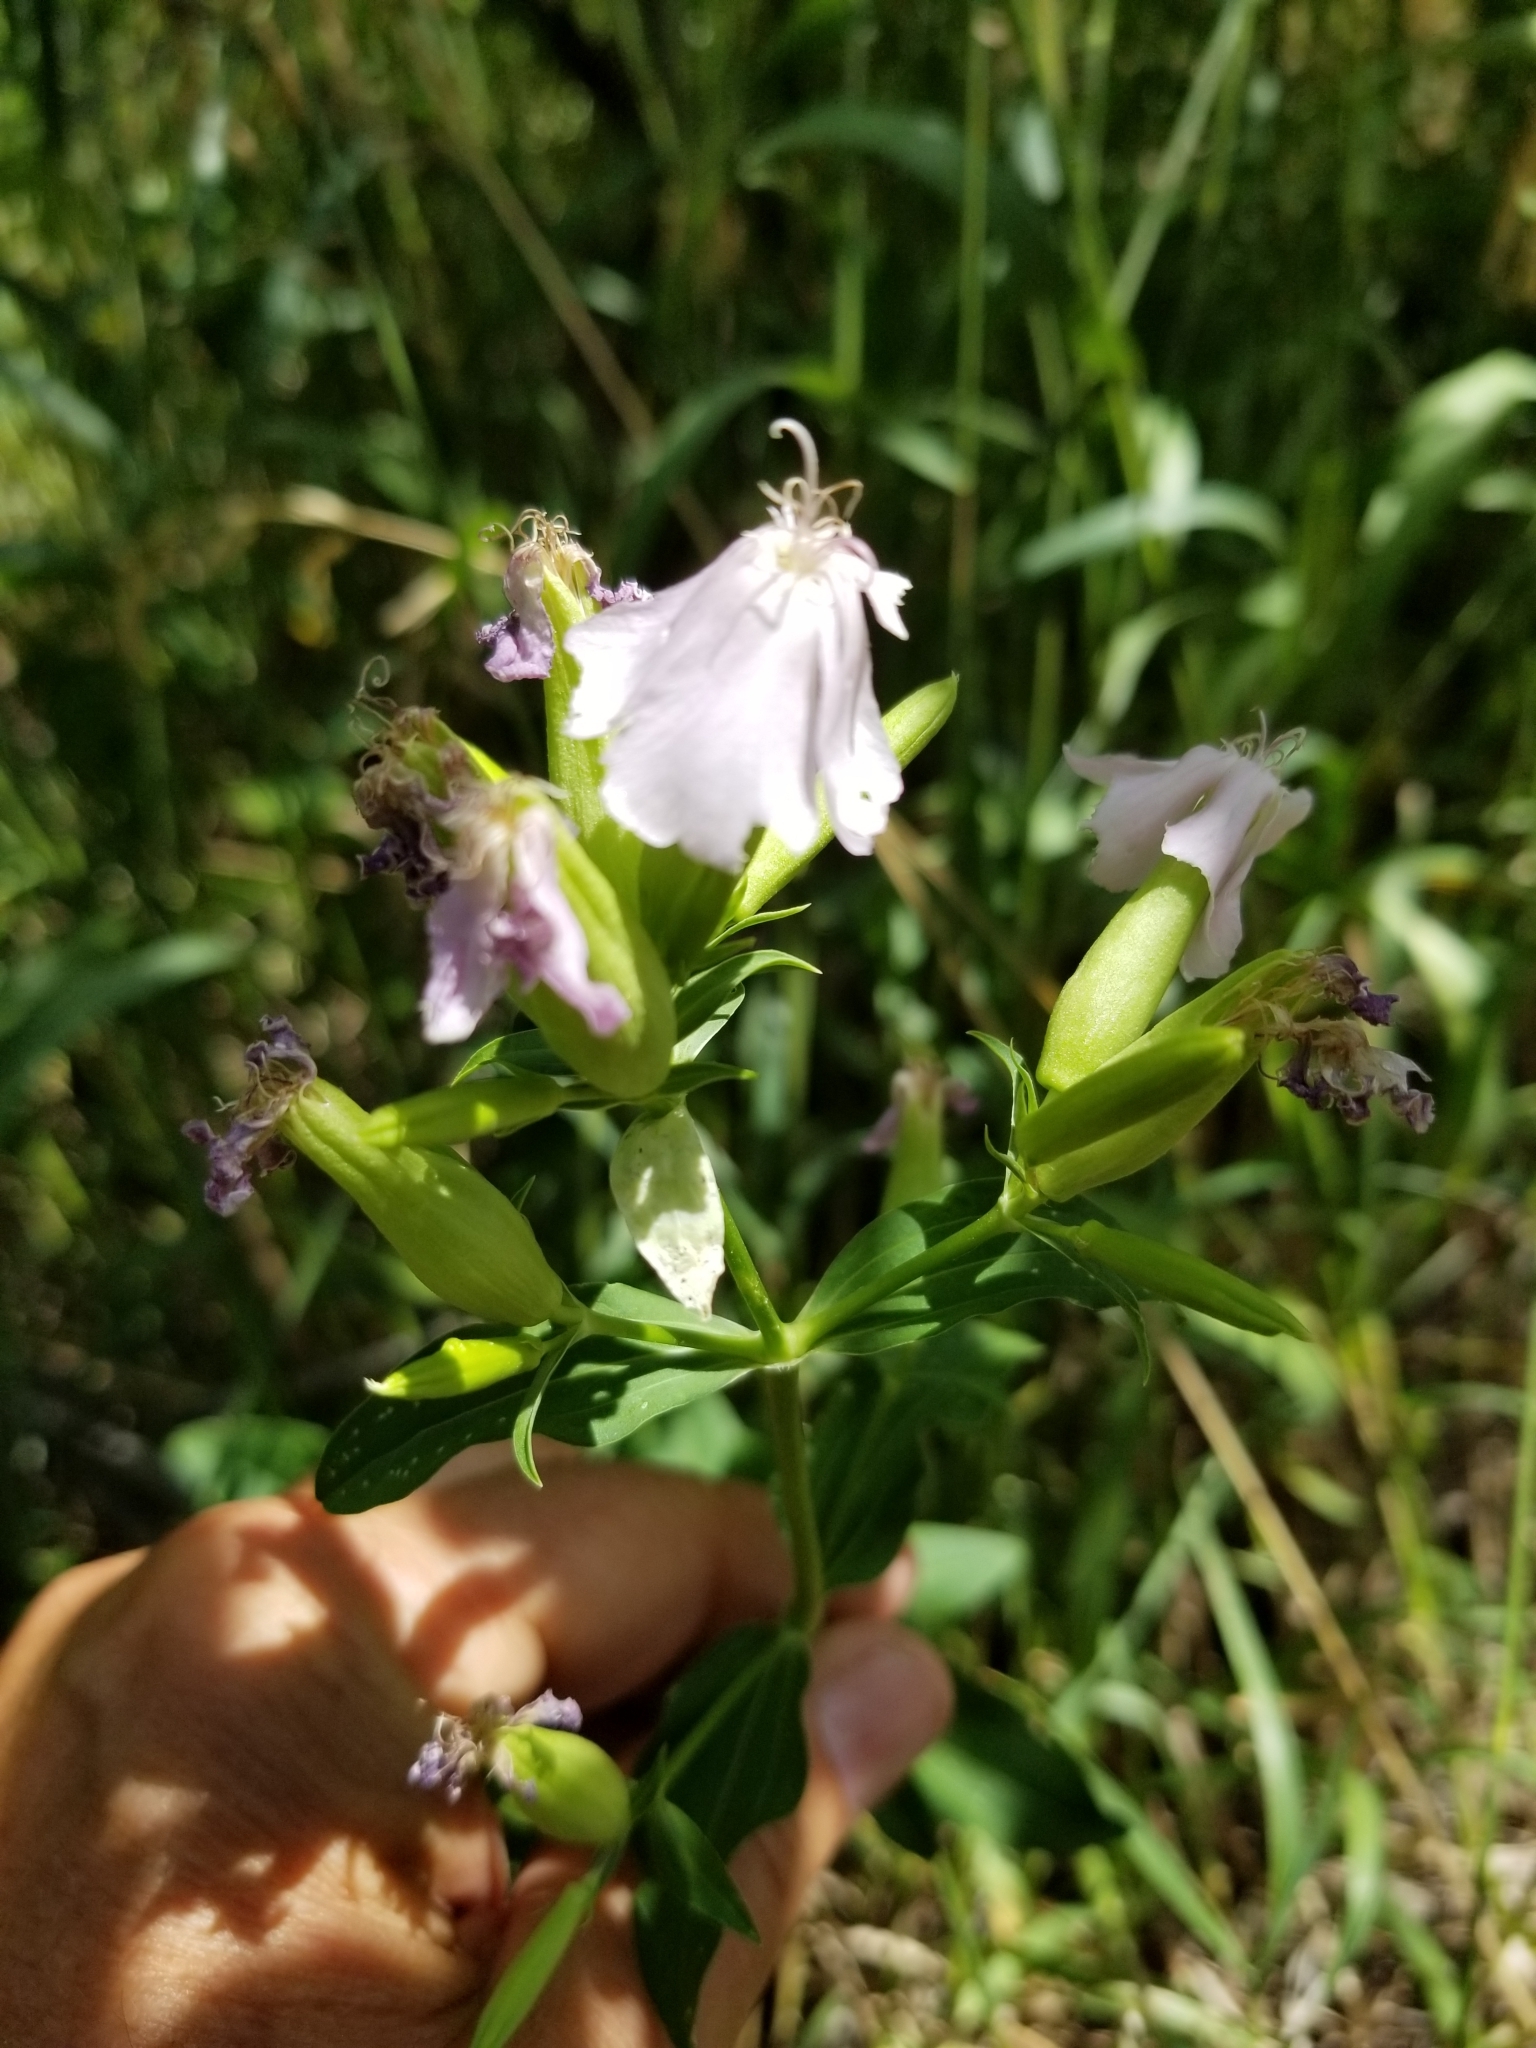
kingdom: Plantae
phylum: Tracheophyta
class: Magnoliopsida
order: Caryophyllales
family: Caryophyllaceae
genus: Saponaria
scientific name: Saponaria officinalis
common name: Soapwort
